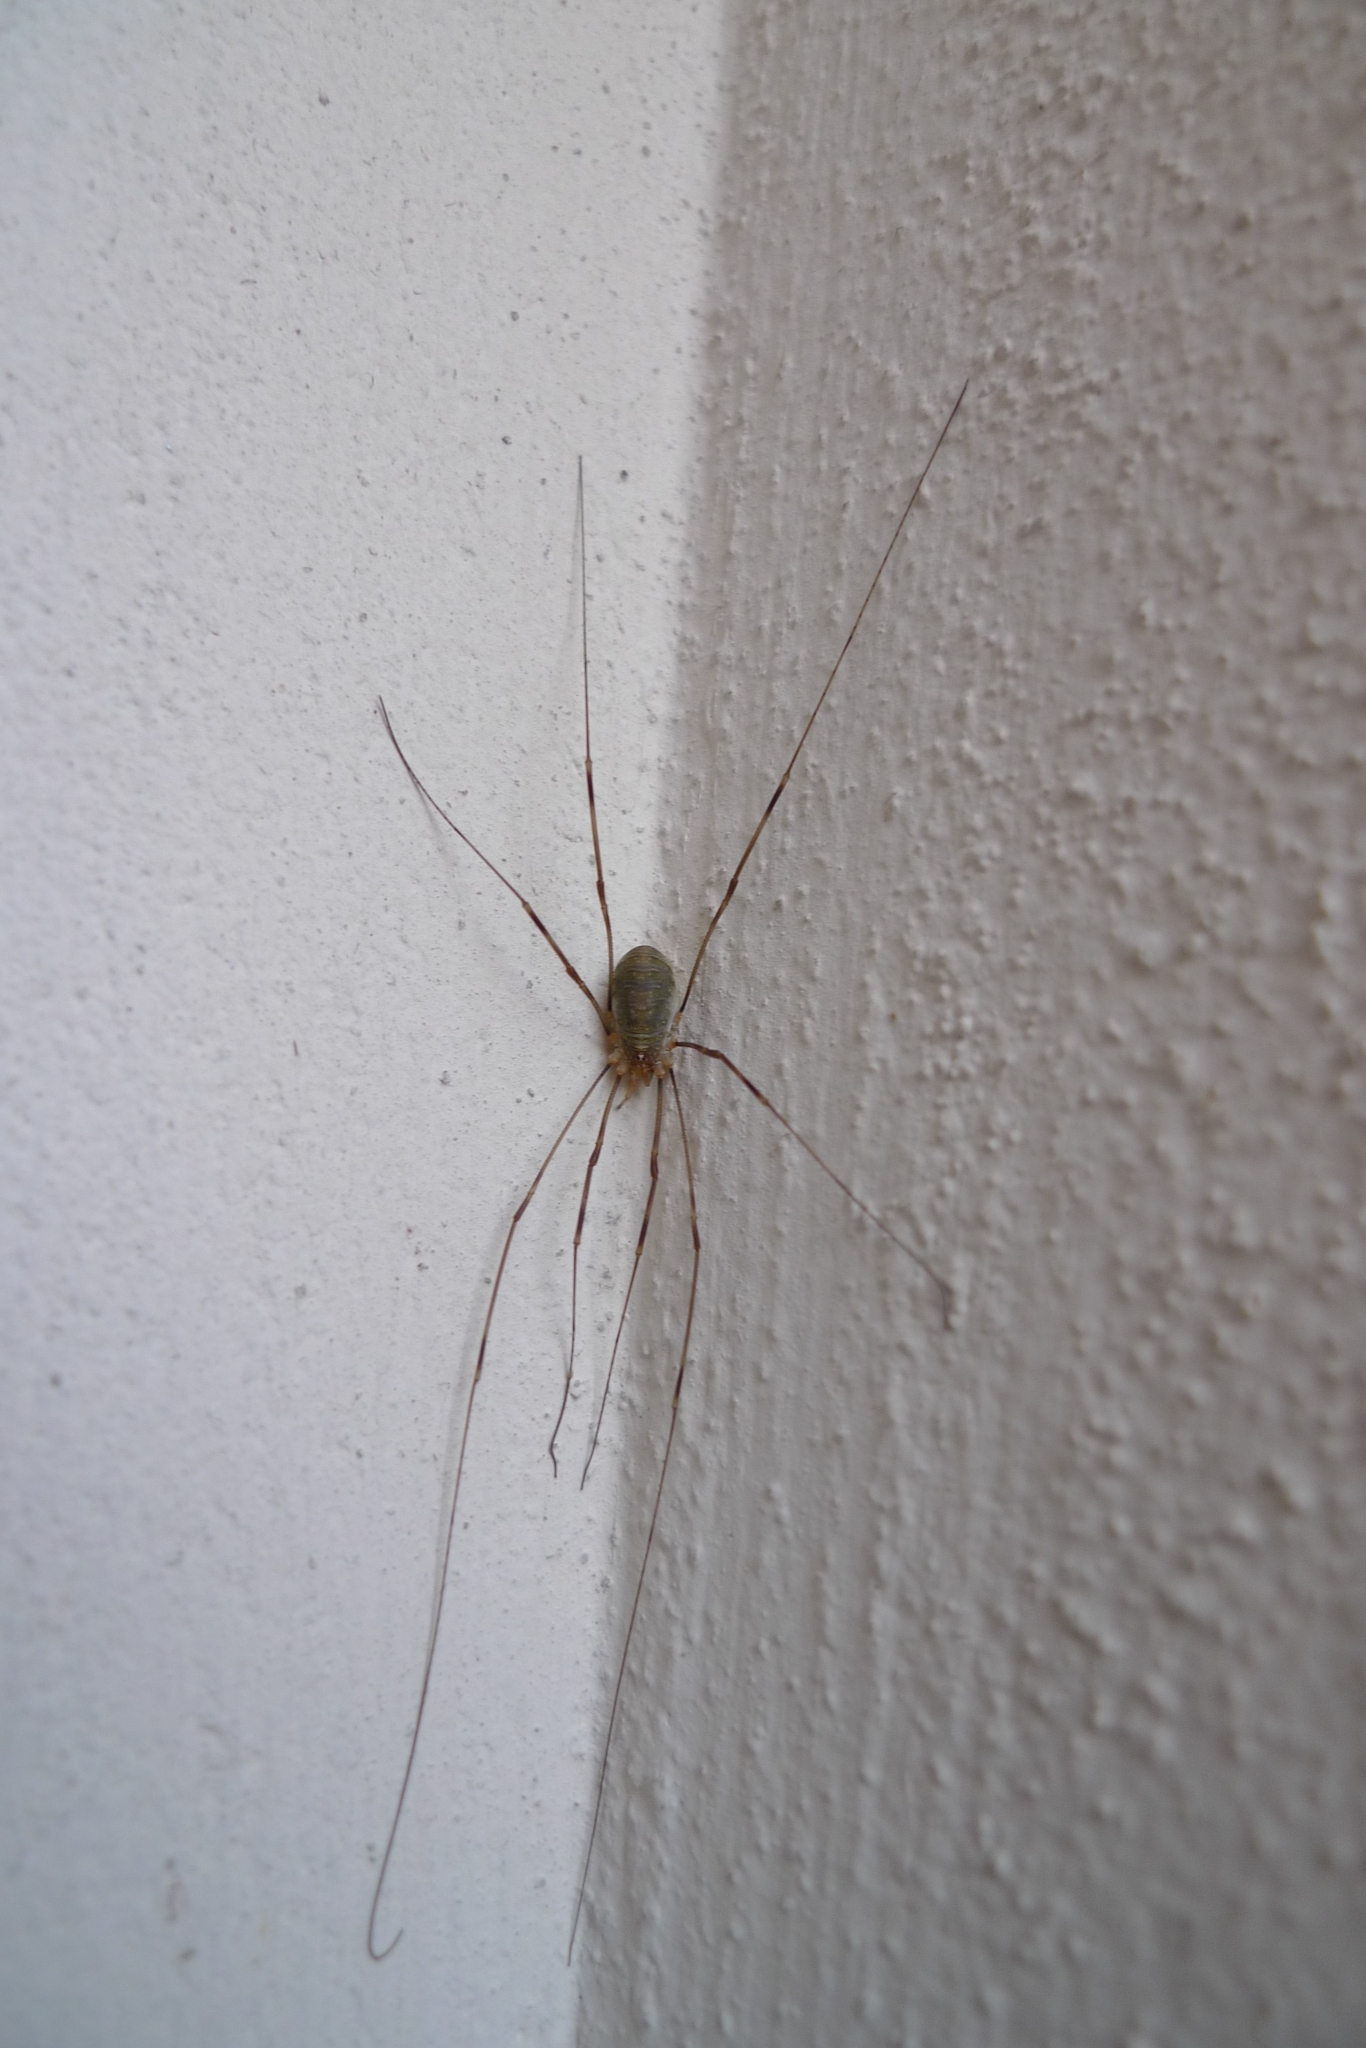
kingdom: Animalia
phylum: Arthropoda
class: Arachnida
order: Opiliones
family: Phalangiidae
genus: Opilio
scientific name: Opilio canestrinii
